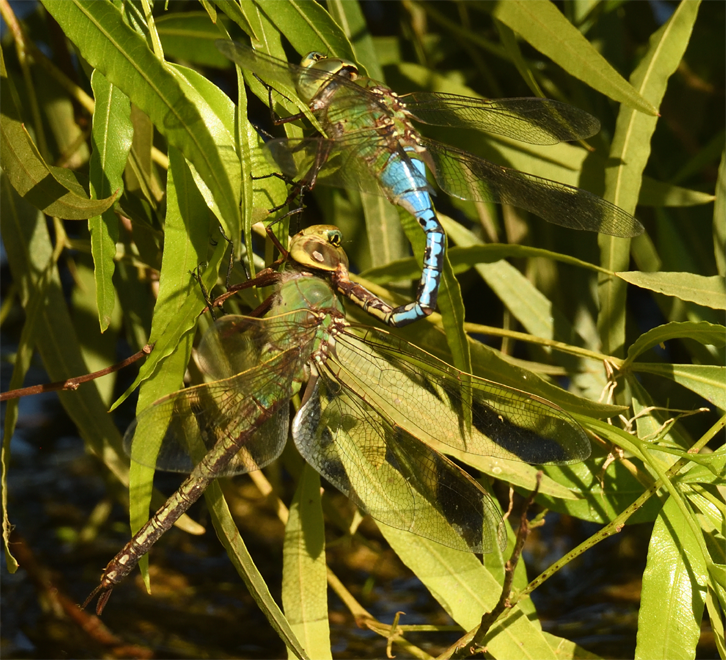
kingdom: Animalia
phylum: Arthropoda
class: Insecta
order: Odonata
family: Aeshnidae
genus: Anax
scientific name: Anax junius
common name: Common green darner
